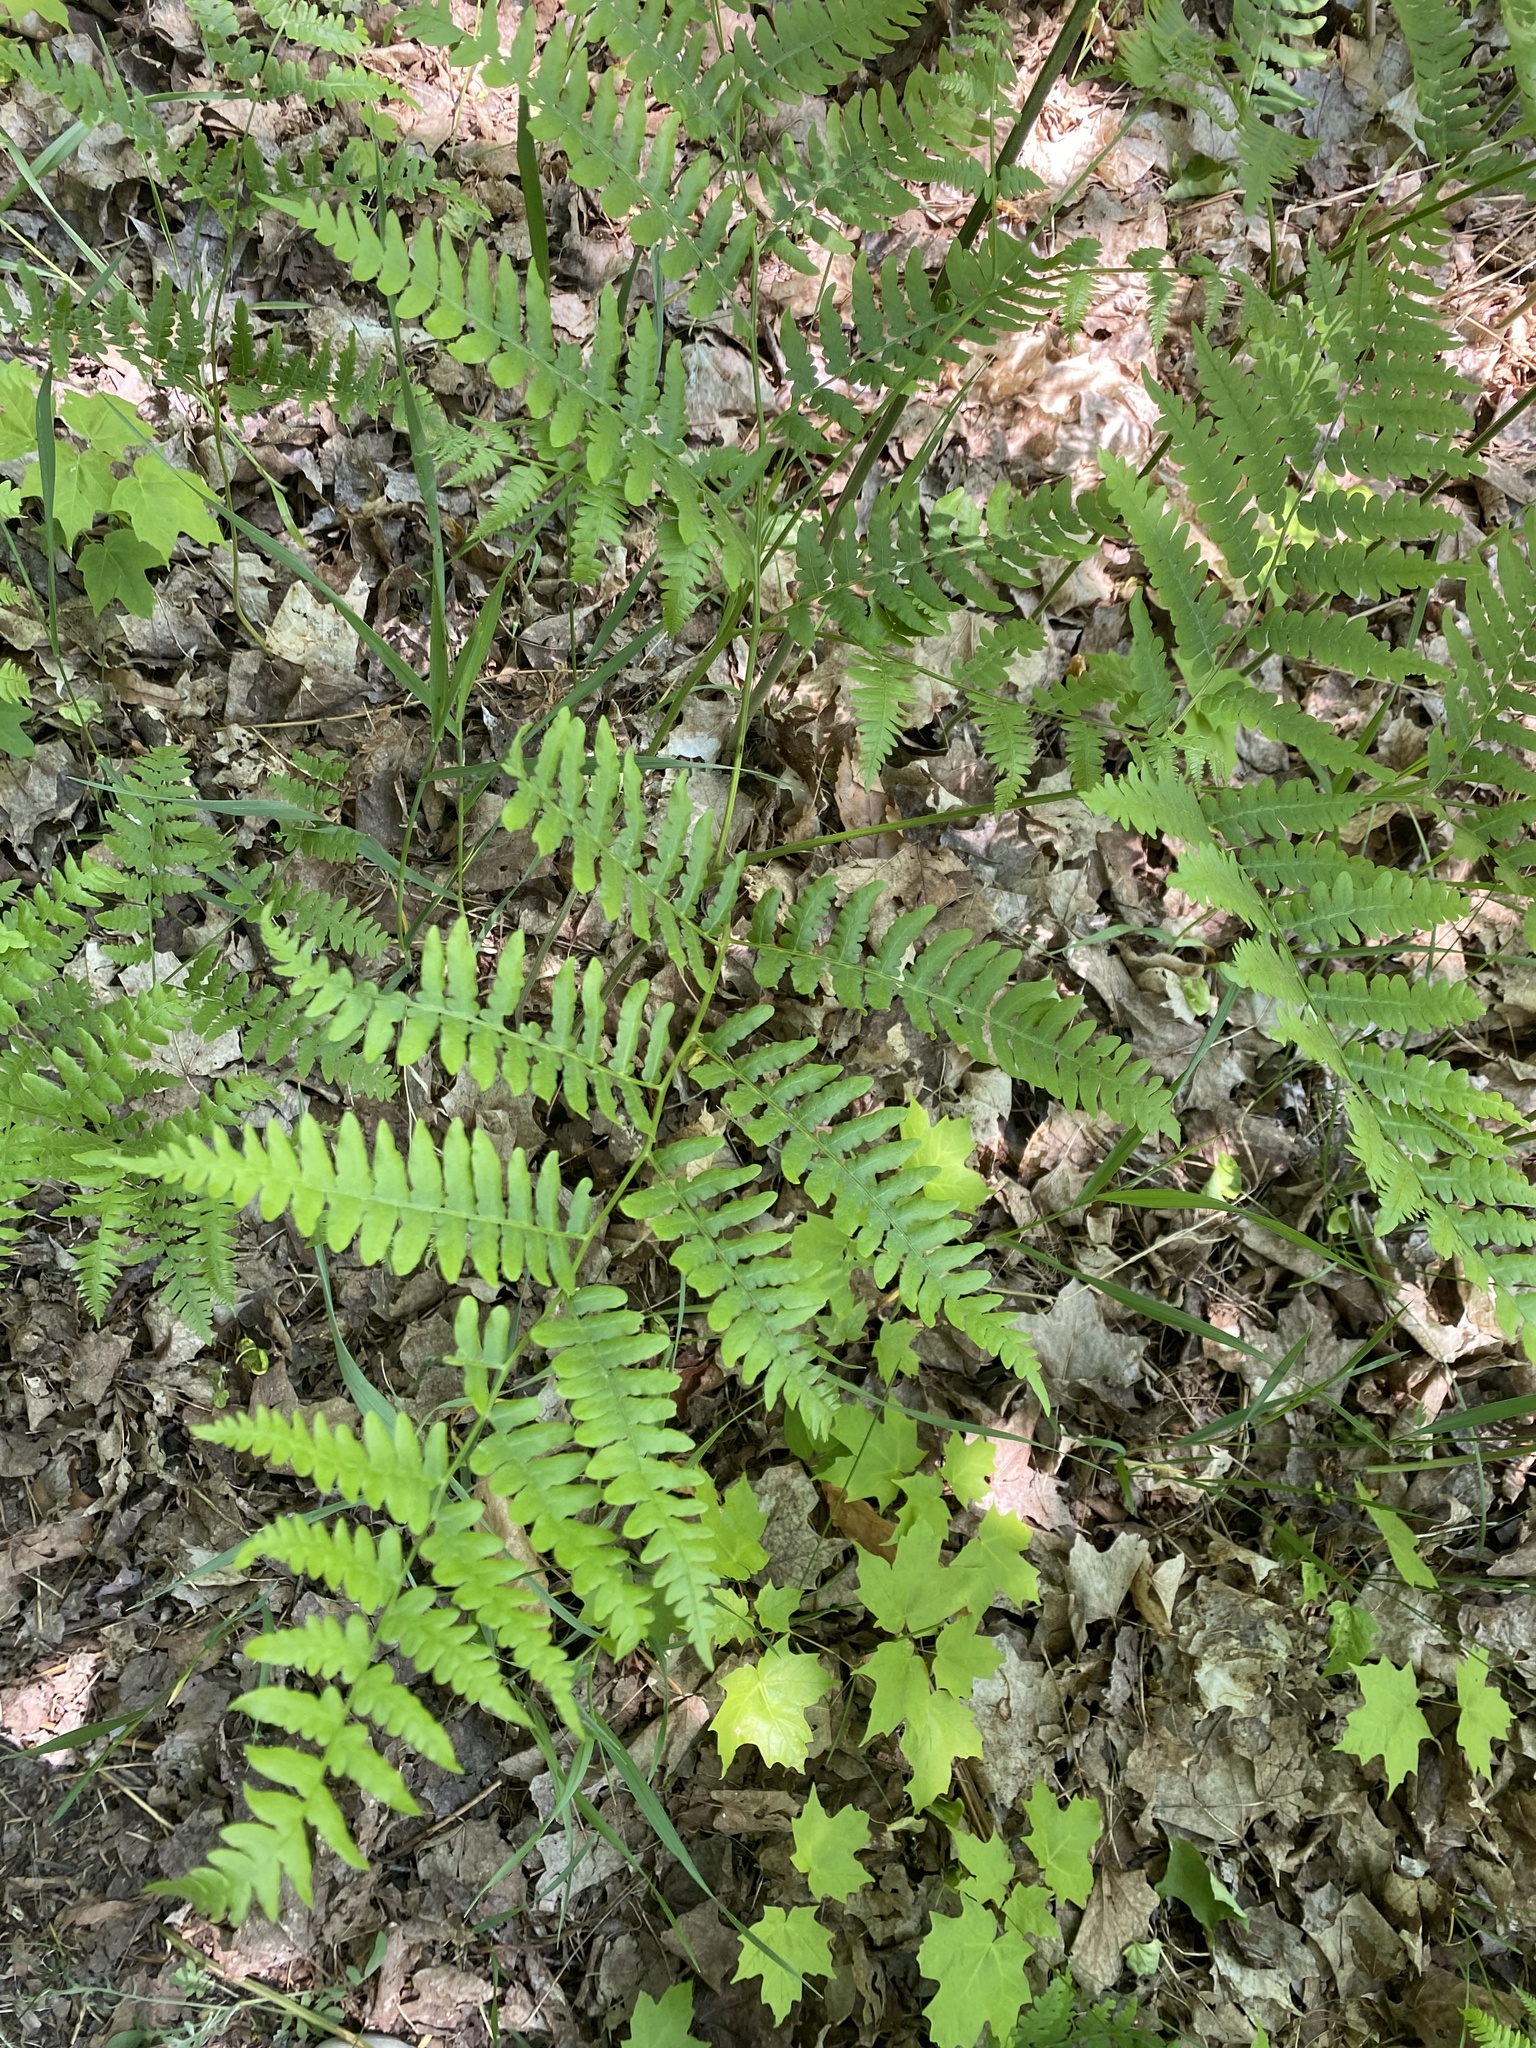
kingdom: Plantae
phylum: Tracheophyta
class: Polypodiopsida
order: Polypodiales
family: Dennstaedtiaceae
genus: Pteridium
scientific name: Pteridium aquilinum
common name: Bracken
